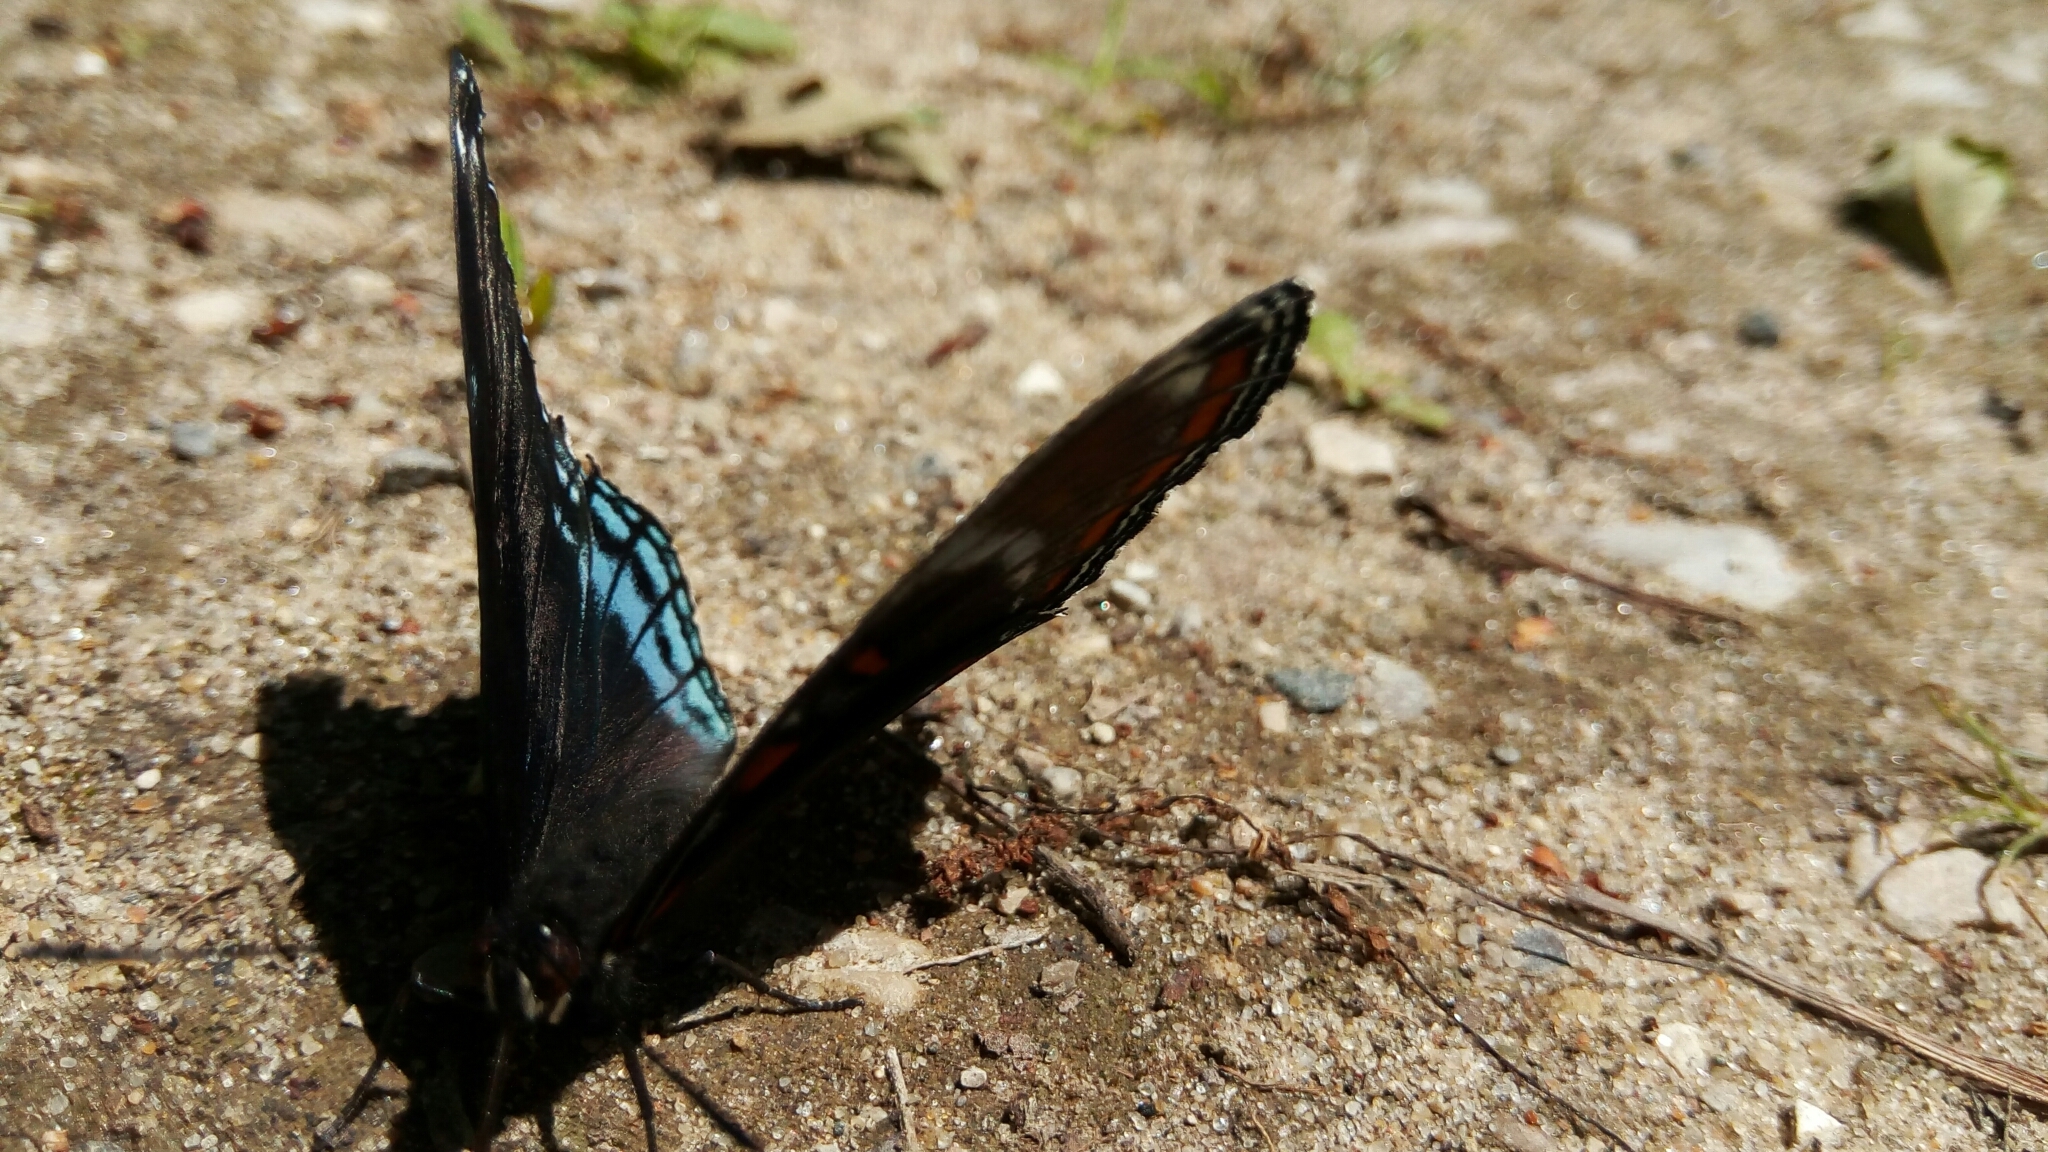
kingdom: Animalia
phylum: Arthropoda
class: Insecta
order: Lepidoptera
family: Nymphalidae
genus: Limenitis
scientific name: Limenitis arthemis
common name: Red-spotted admiral
